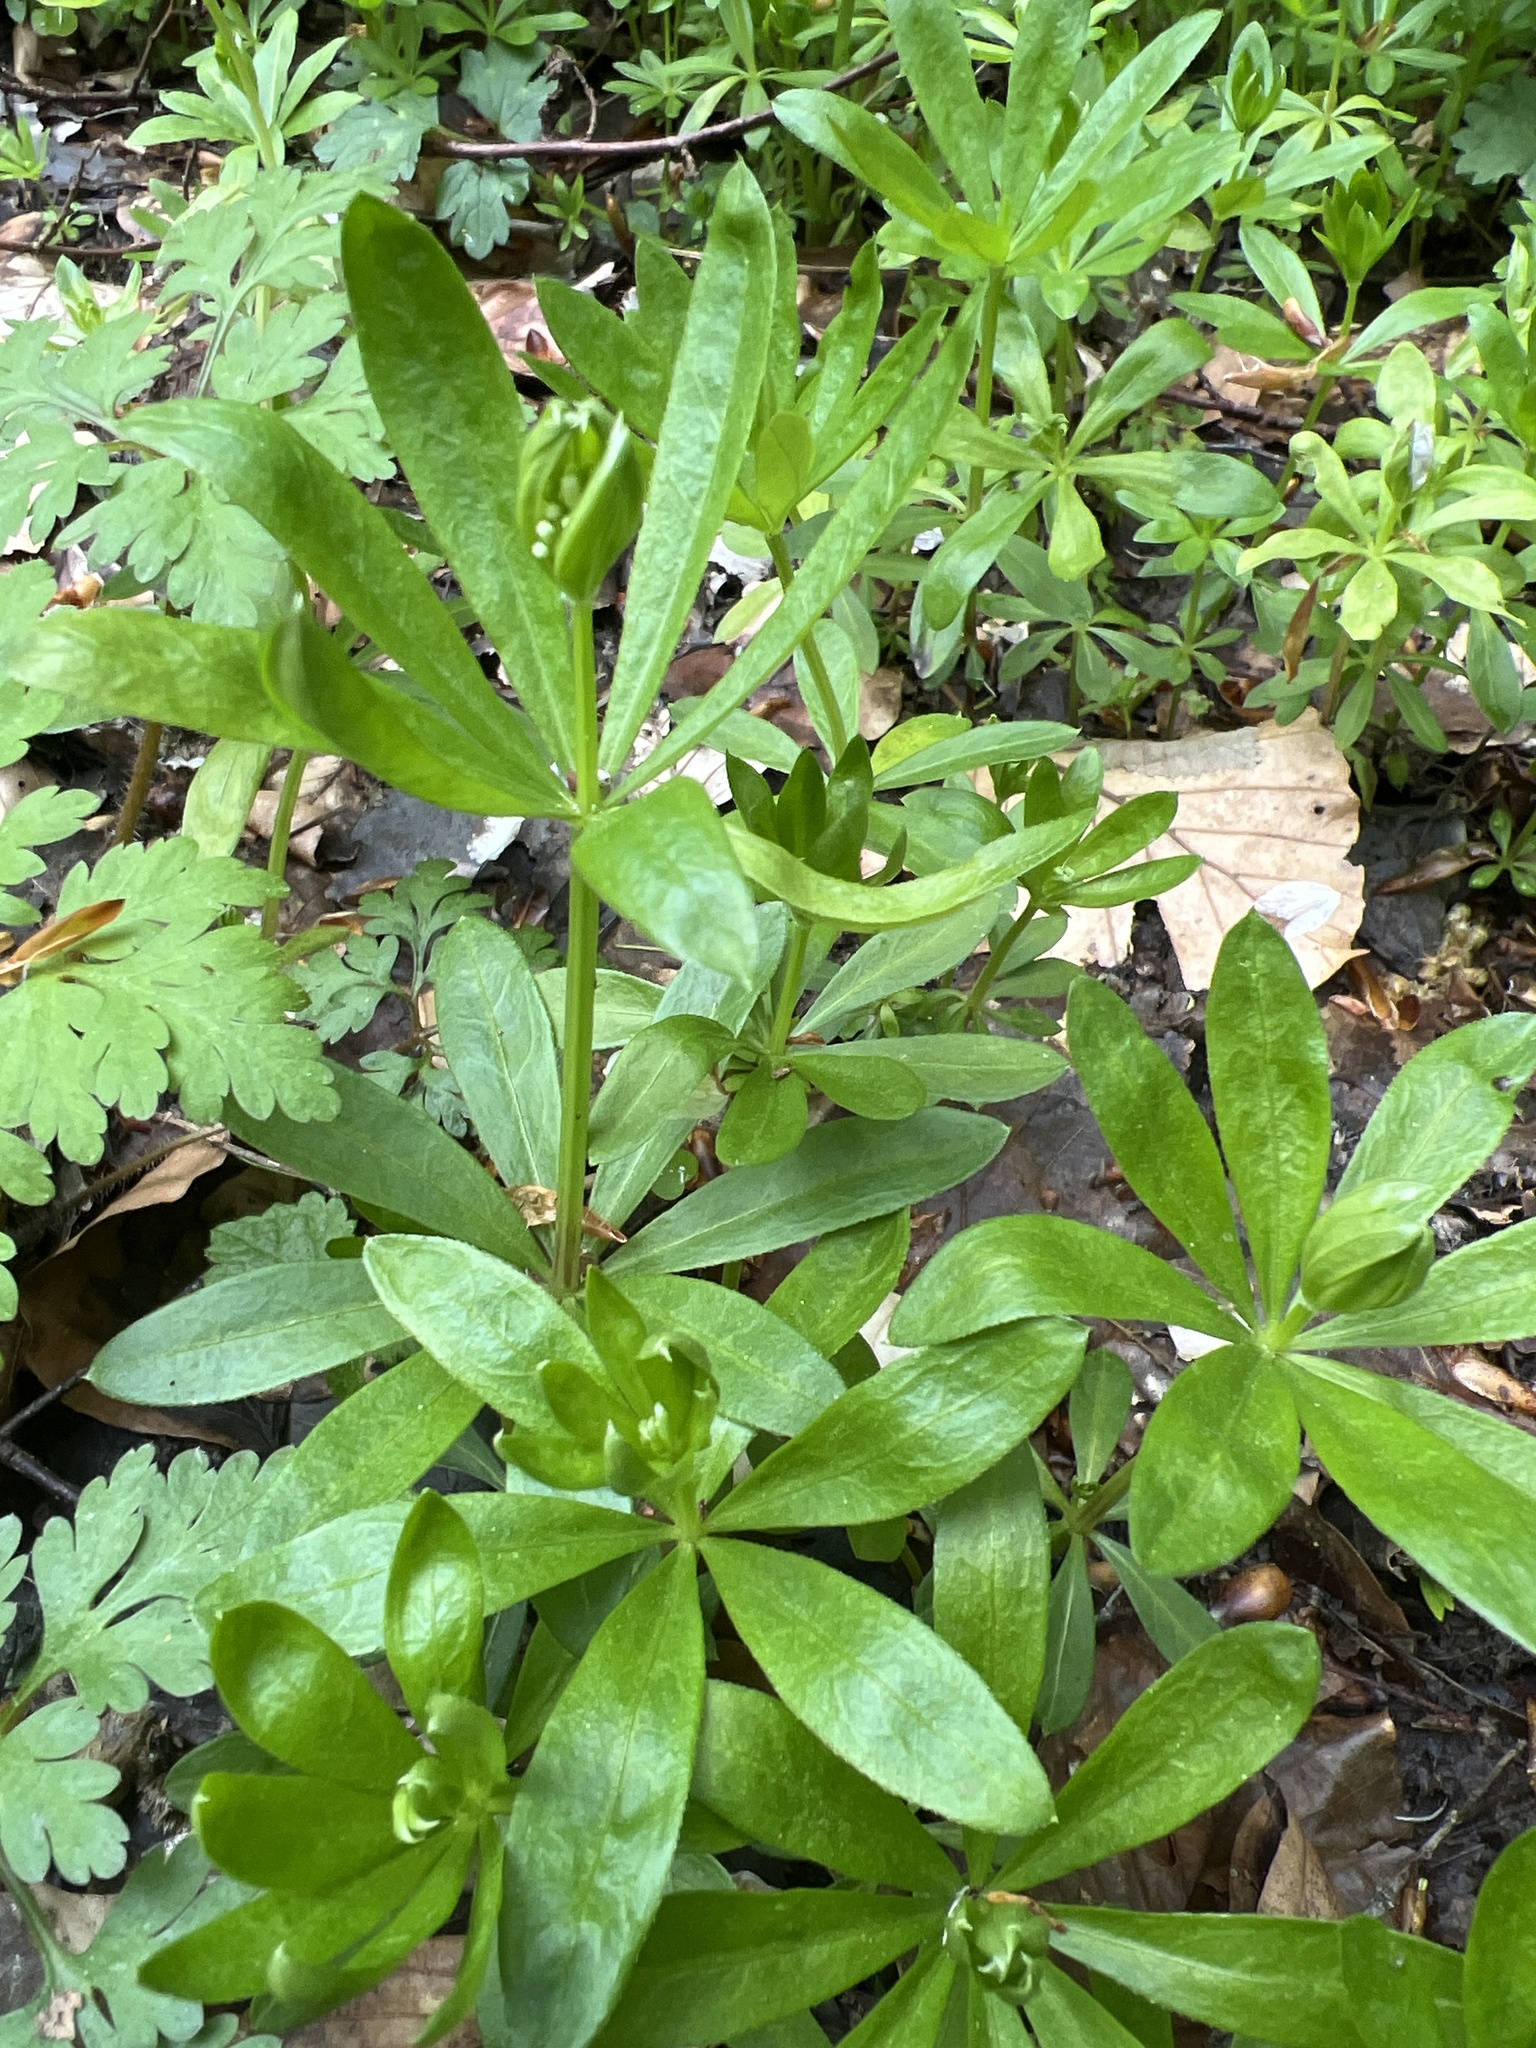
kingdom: Plantae
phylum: Tracheophyta
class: Magnoliopsida
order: Gentianales
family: Rubiaceae
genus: Galium
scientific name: Galium odoratum
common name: Sweet woodruff
